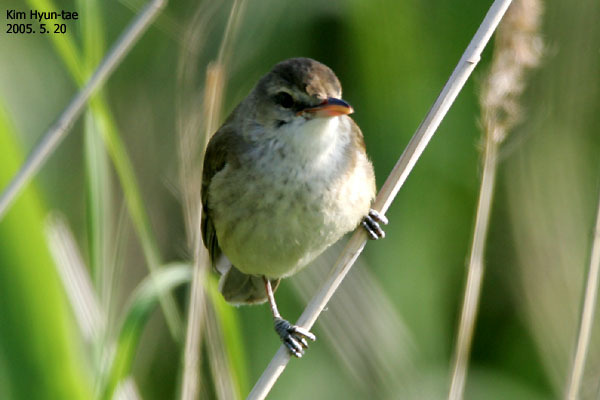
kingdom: Animalia
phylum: Chordata
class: Aves
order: Passeriformes
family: Acrocephalidae
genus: Acrocephalus
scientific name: Acrocephalus orientalis
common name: Oriental reed warbler
